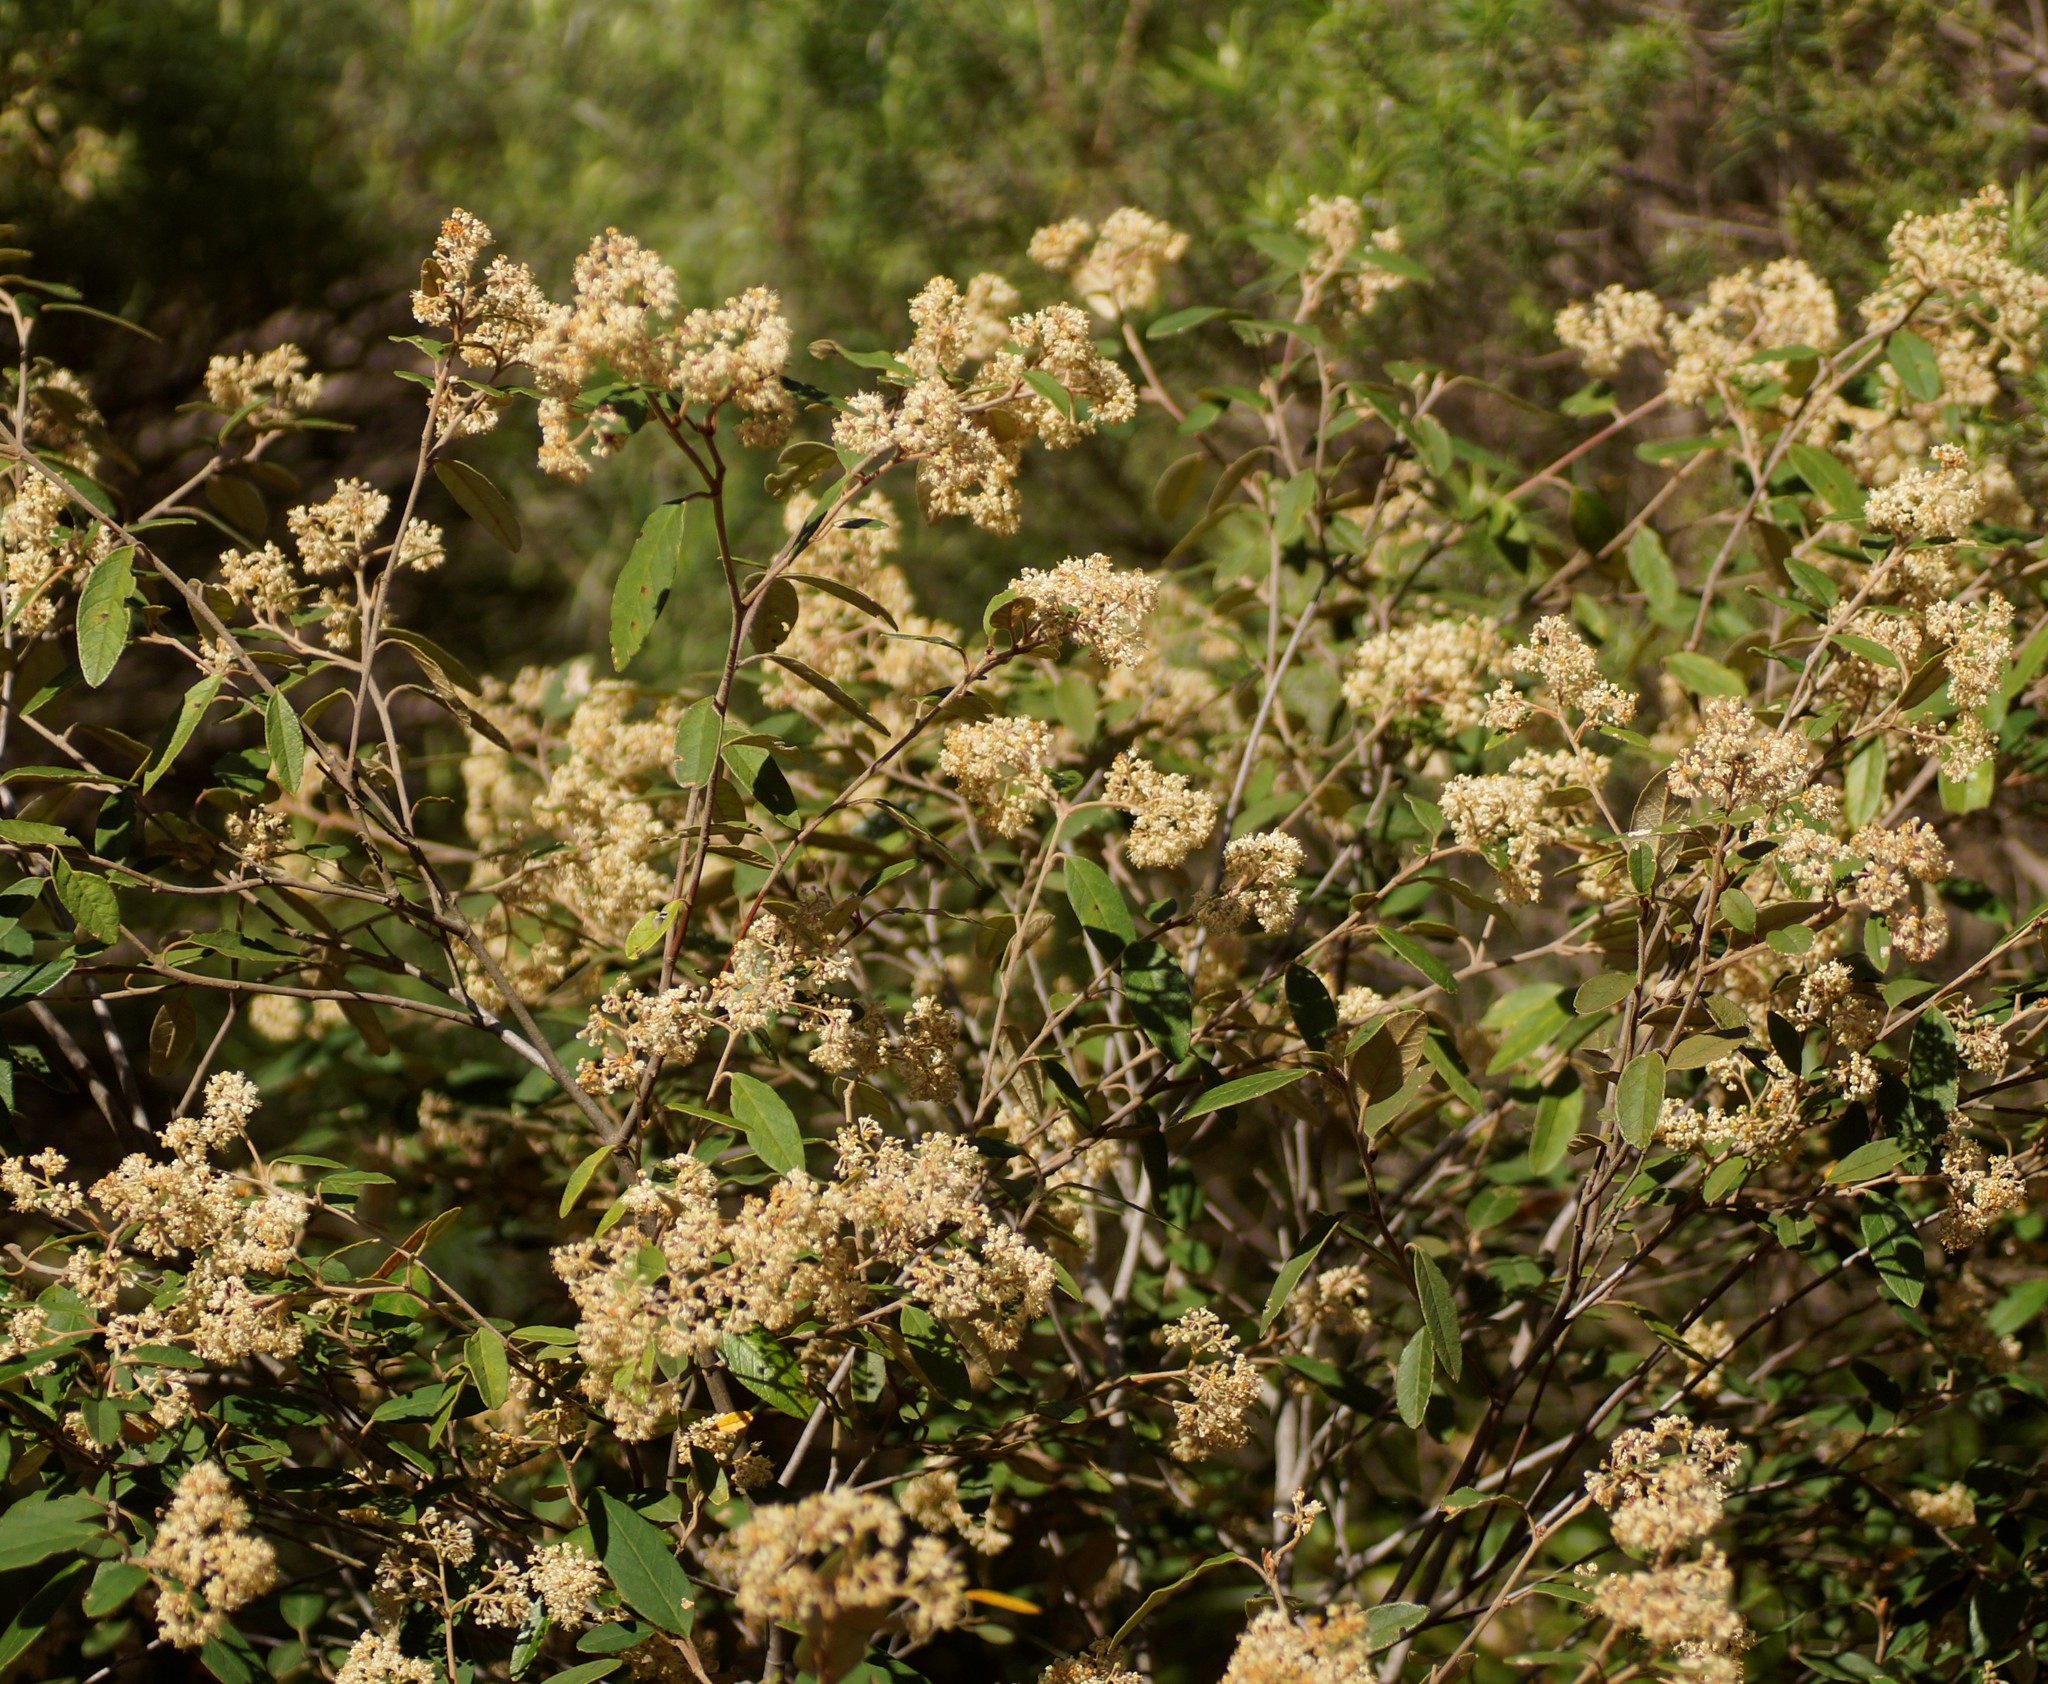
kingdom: Plantae
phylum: Tracheophyta
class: Magnoliopsida
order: Rosales
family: Rhamnaceae
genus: Pomaderris
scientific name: Pomaderris wendlandiana
